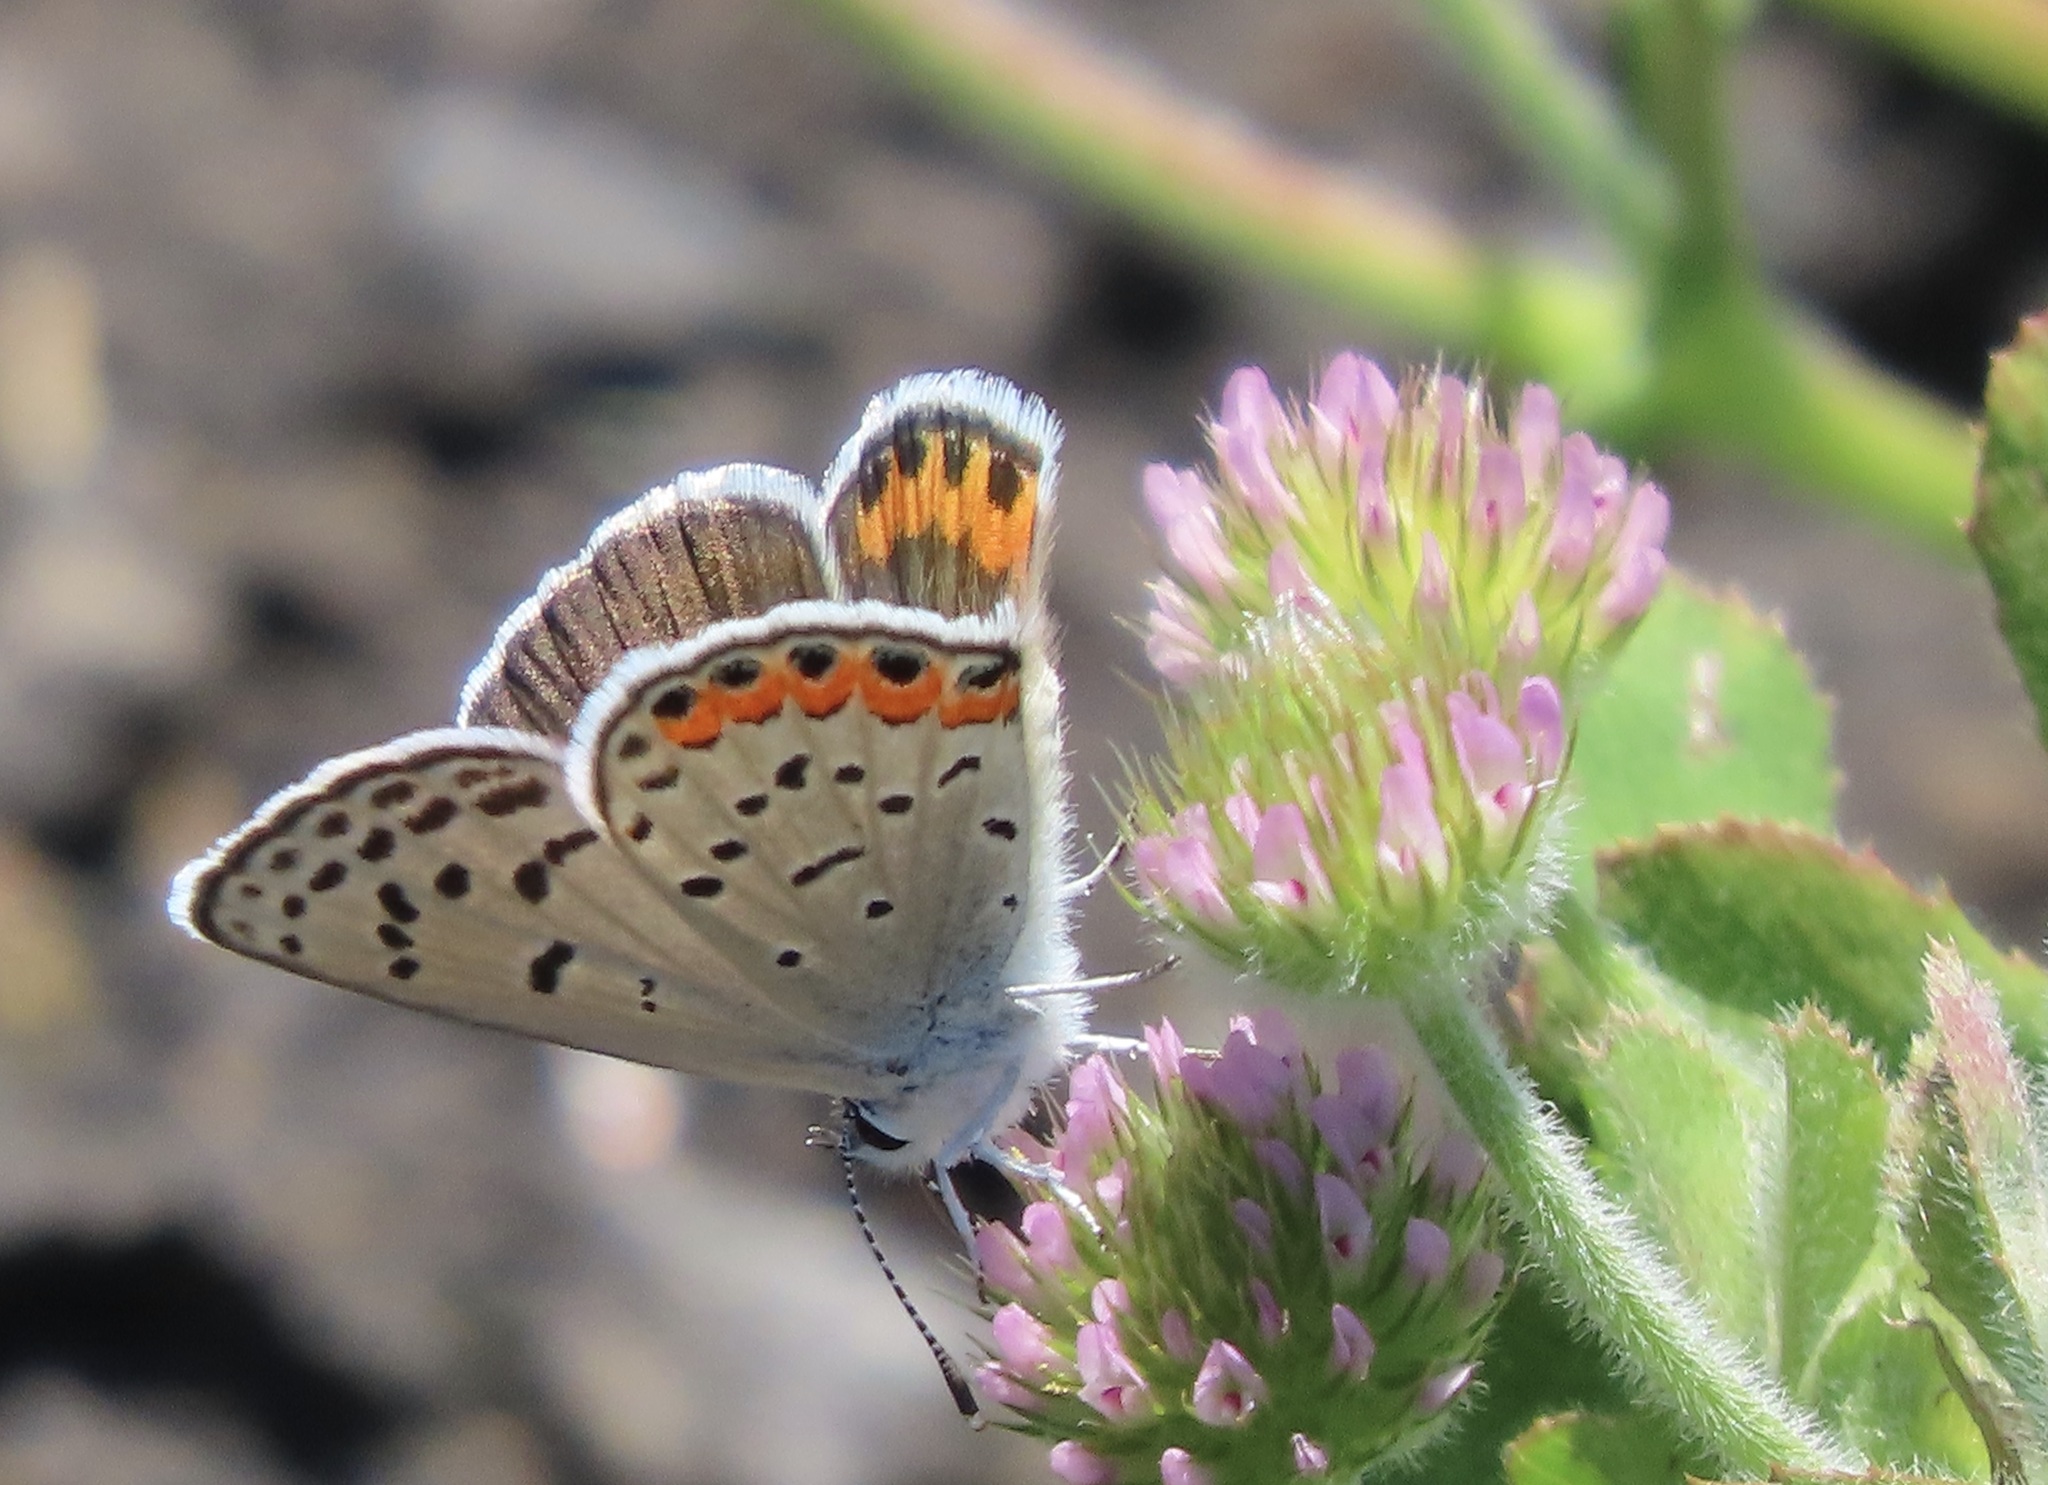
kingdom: Animalia
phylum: Arthropoda
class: Insecta
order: Lepidoptera
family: Lycaenidae
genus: Icaricia
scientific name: Icaricia acmon
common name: Acmon blue
